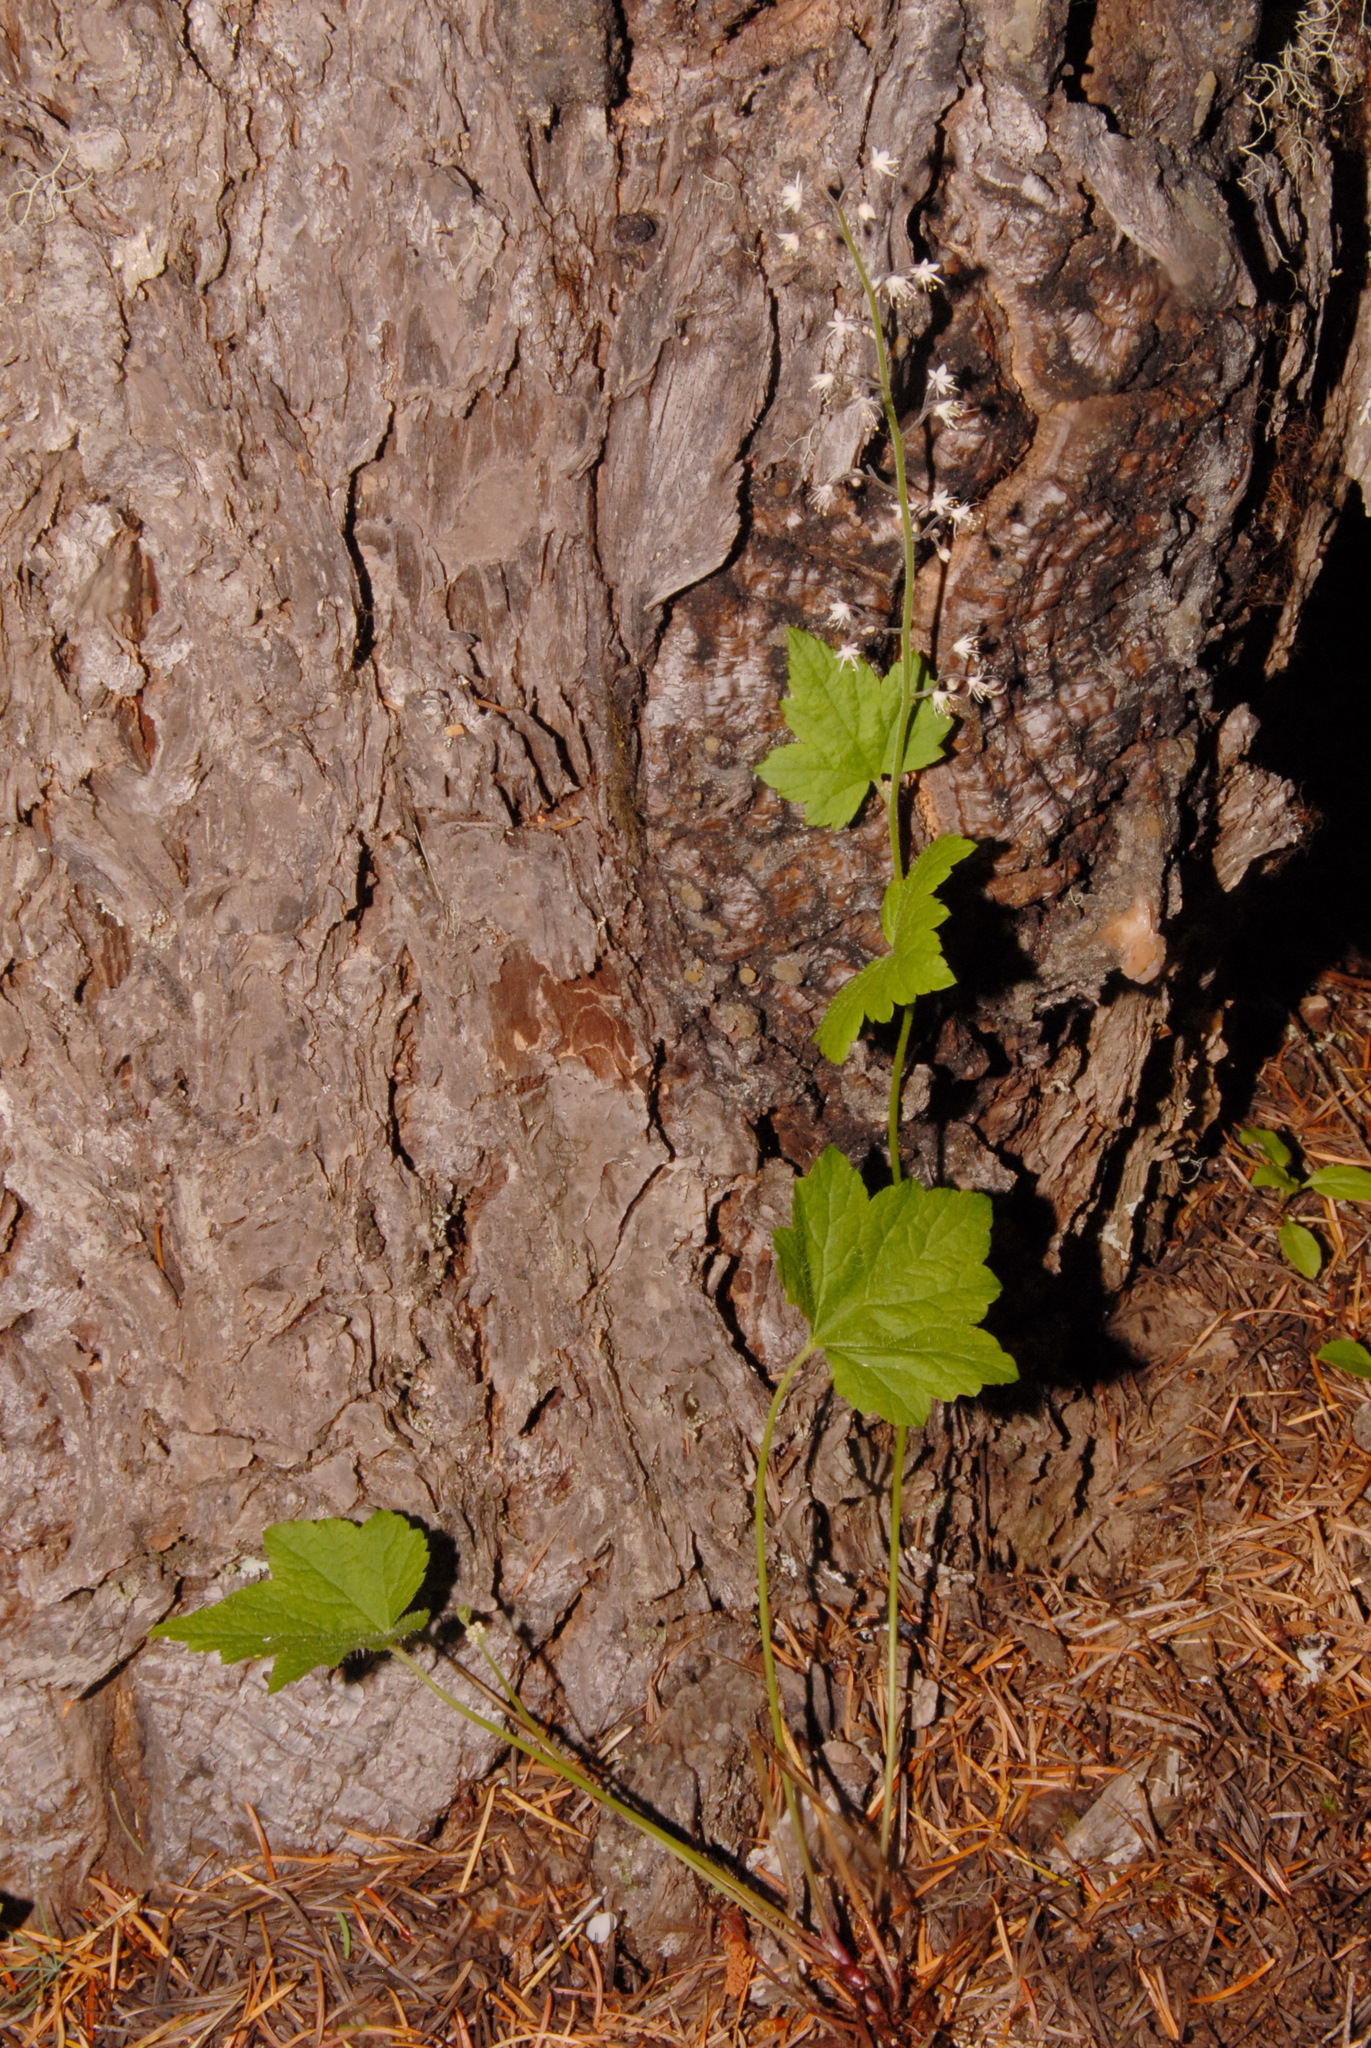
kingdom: Plantae
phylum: Tracheophyta
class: Magnoliopsida
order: Saxifragales
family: Saxifragaceae
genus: Tiarella
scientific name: Tiarella trifoliata
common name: Sugar-scoop
